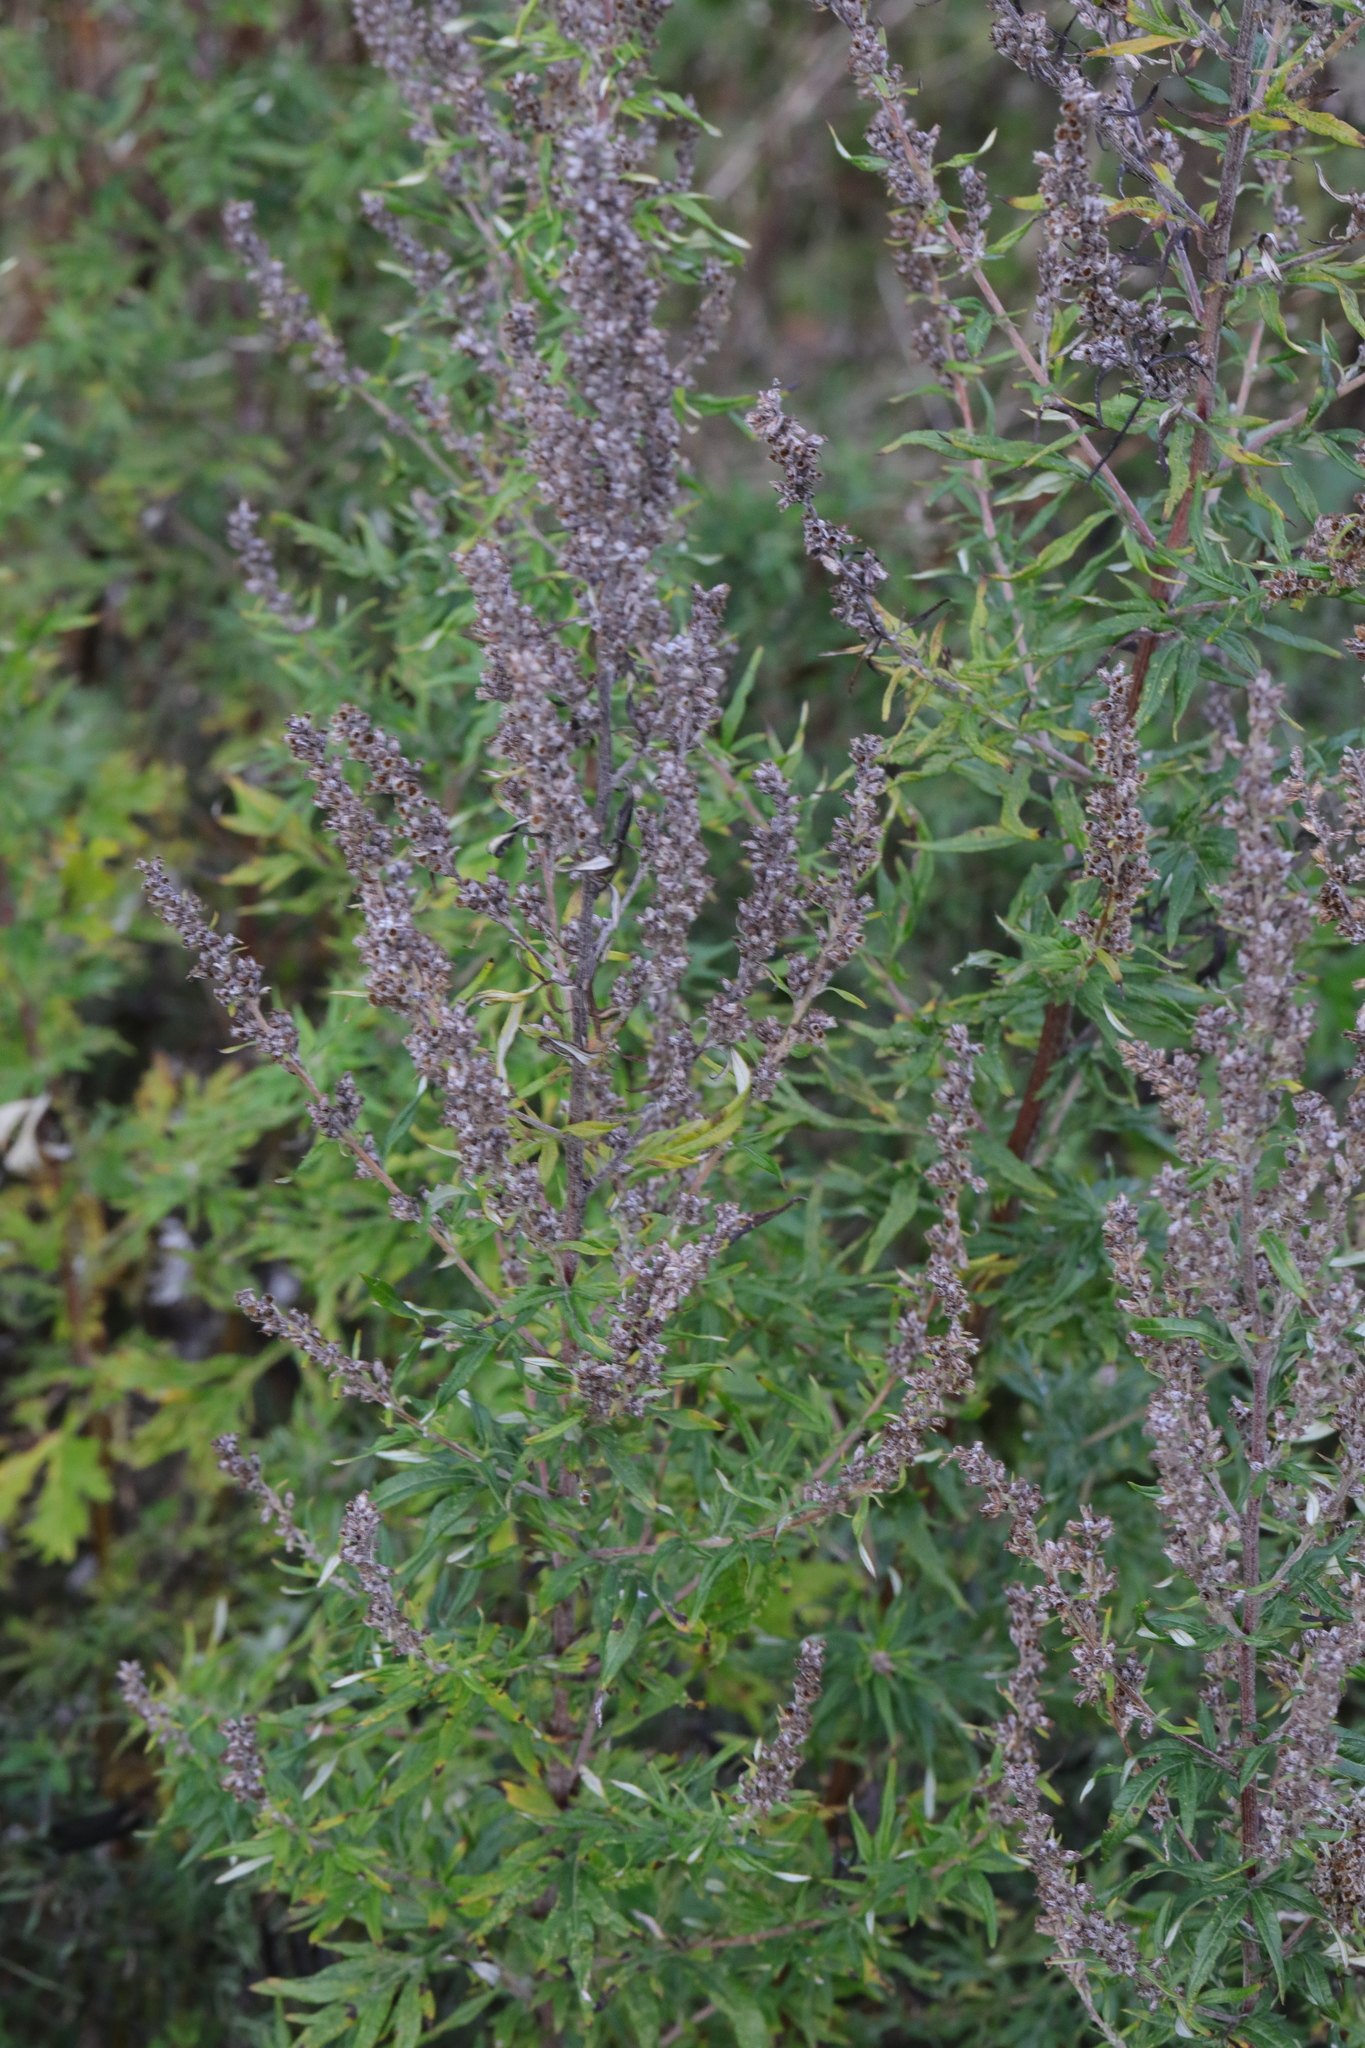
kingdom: Plantae
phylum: Tracheophyta
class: Magnoliopsida
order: Asterales
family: Asteraceae
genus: Artemisia
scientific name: Artemisia vulgaris
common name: Mugwort
